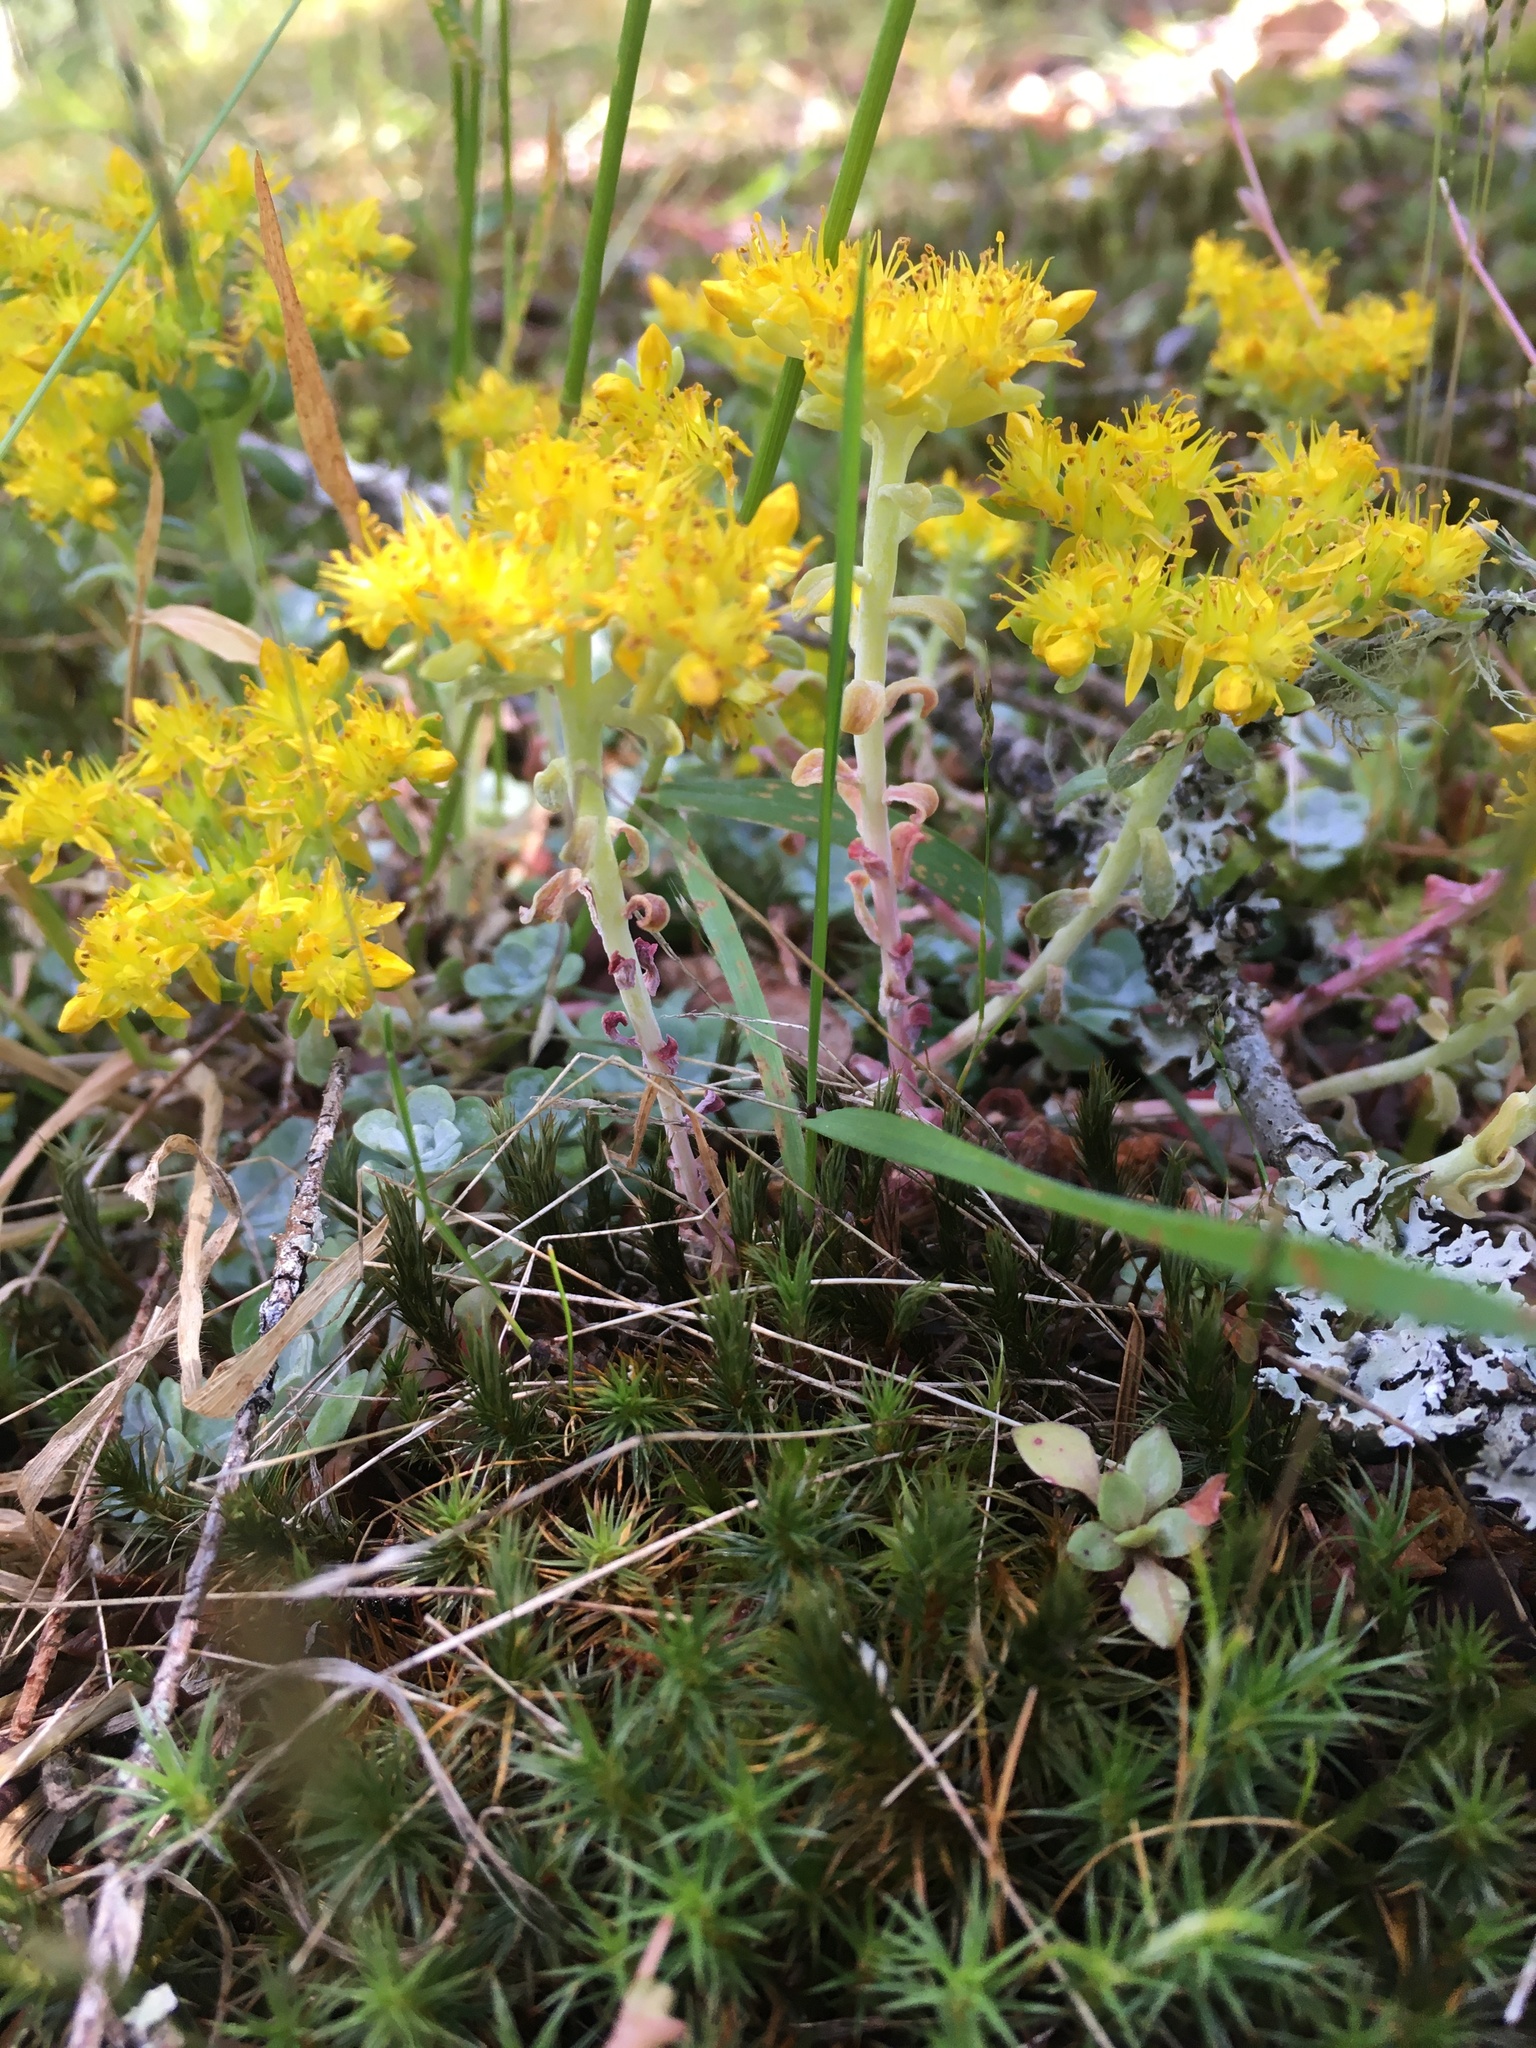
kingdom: Plantae
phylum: Tracheophyta
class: Magnoliopsida
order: Saxifragales
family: Crassulaceae
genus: Sedum
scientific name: Sedum spathulifolium
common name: Colorado stonecrop
